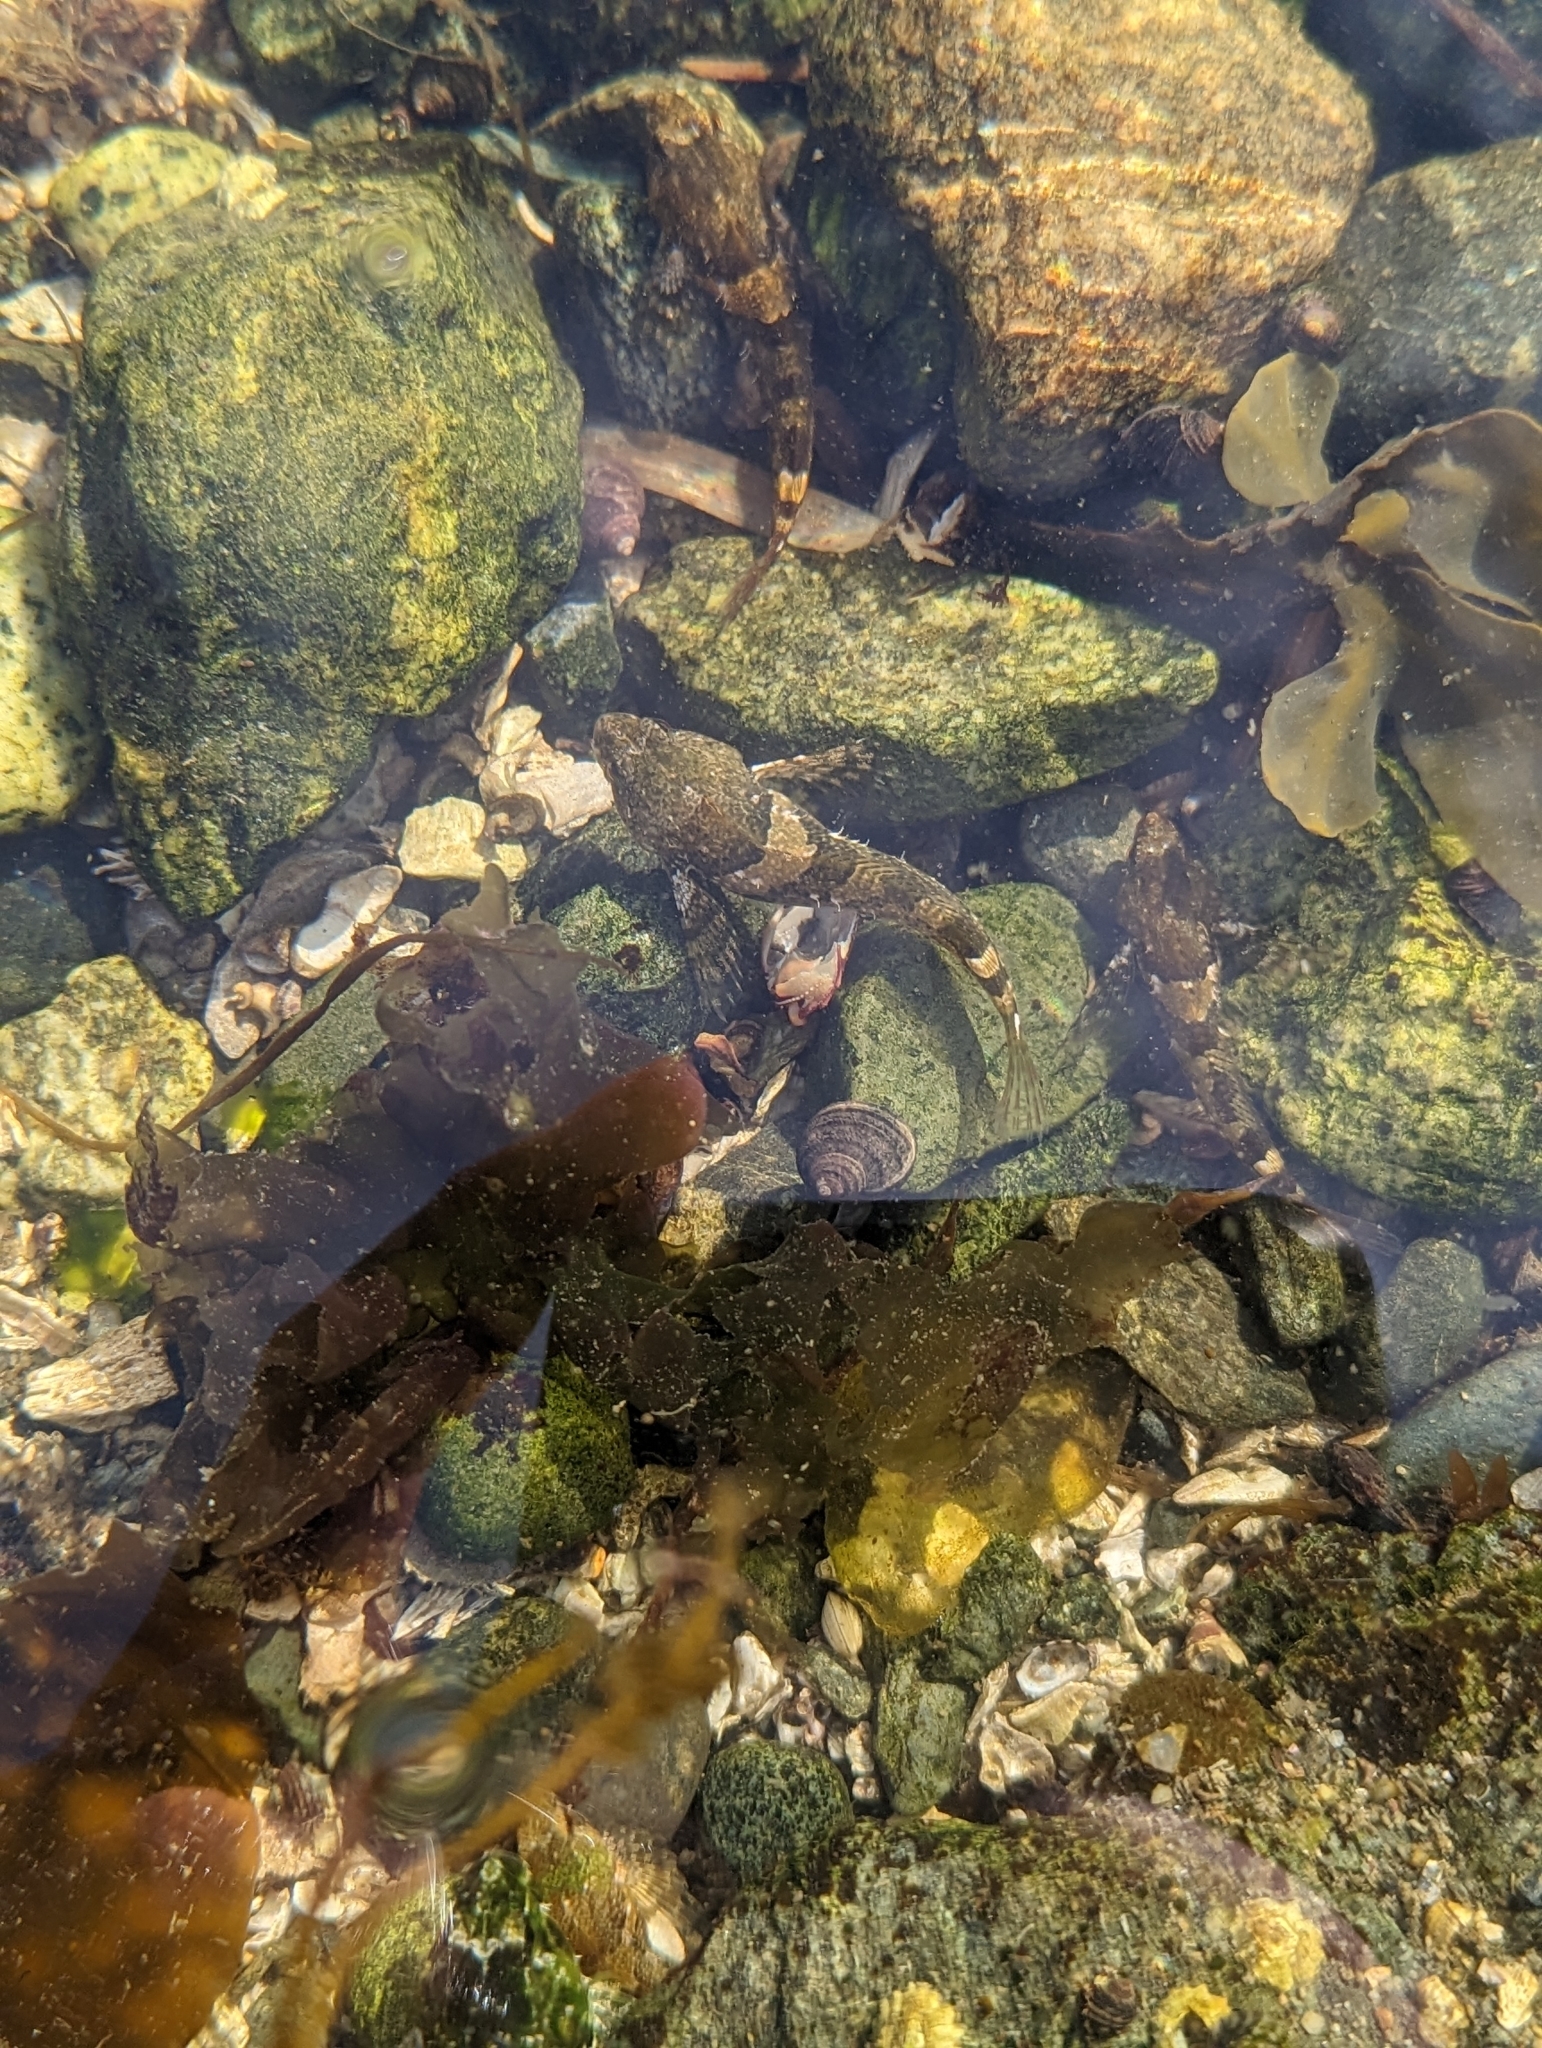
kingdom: Animalia
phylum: Chordata
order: Scorpaeniformes
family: Cottidae
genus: Oligocottus
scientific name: Oligocottus maculosus
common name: Tidepool sculpin
